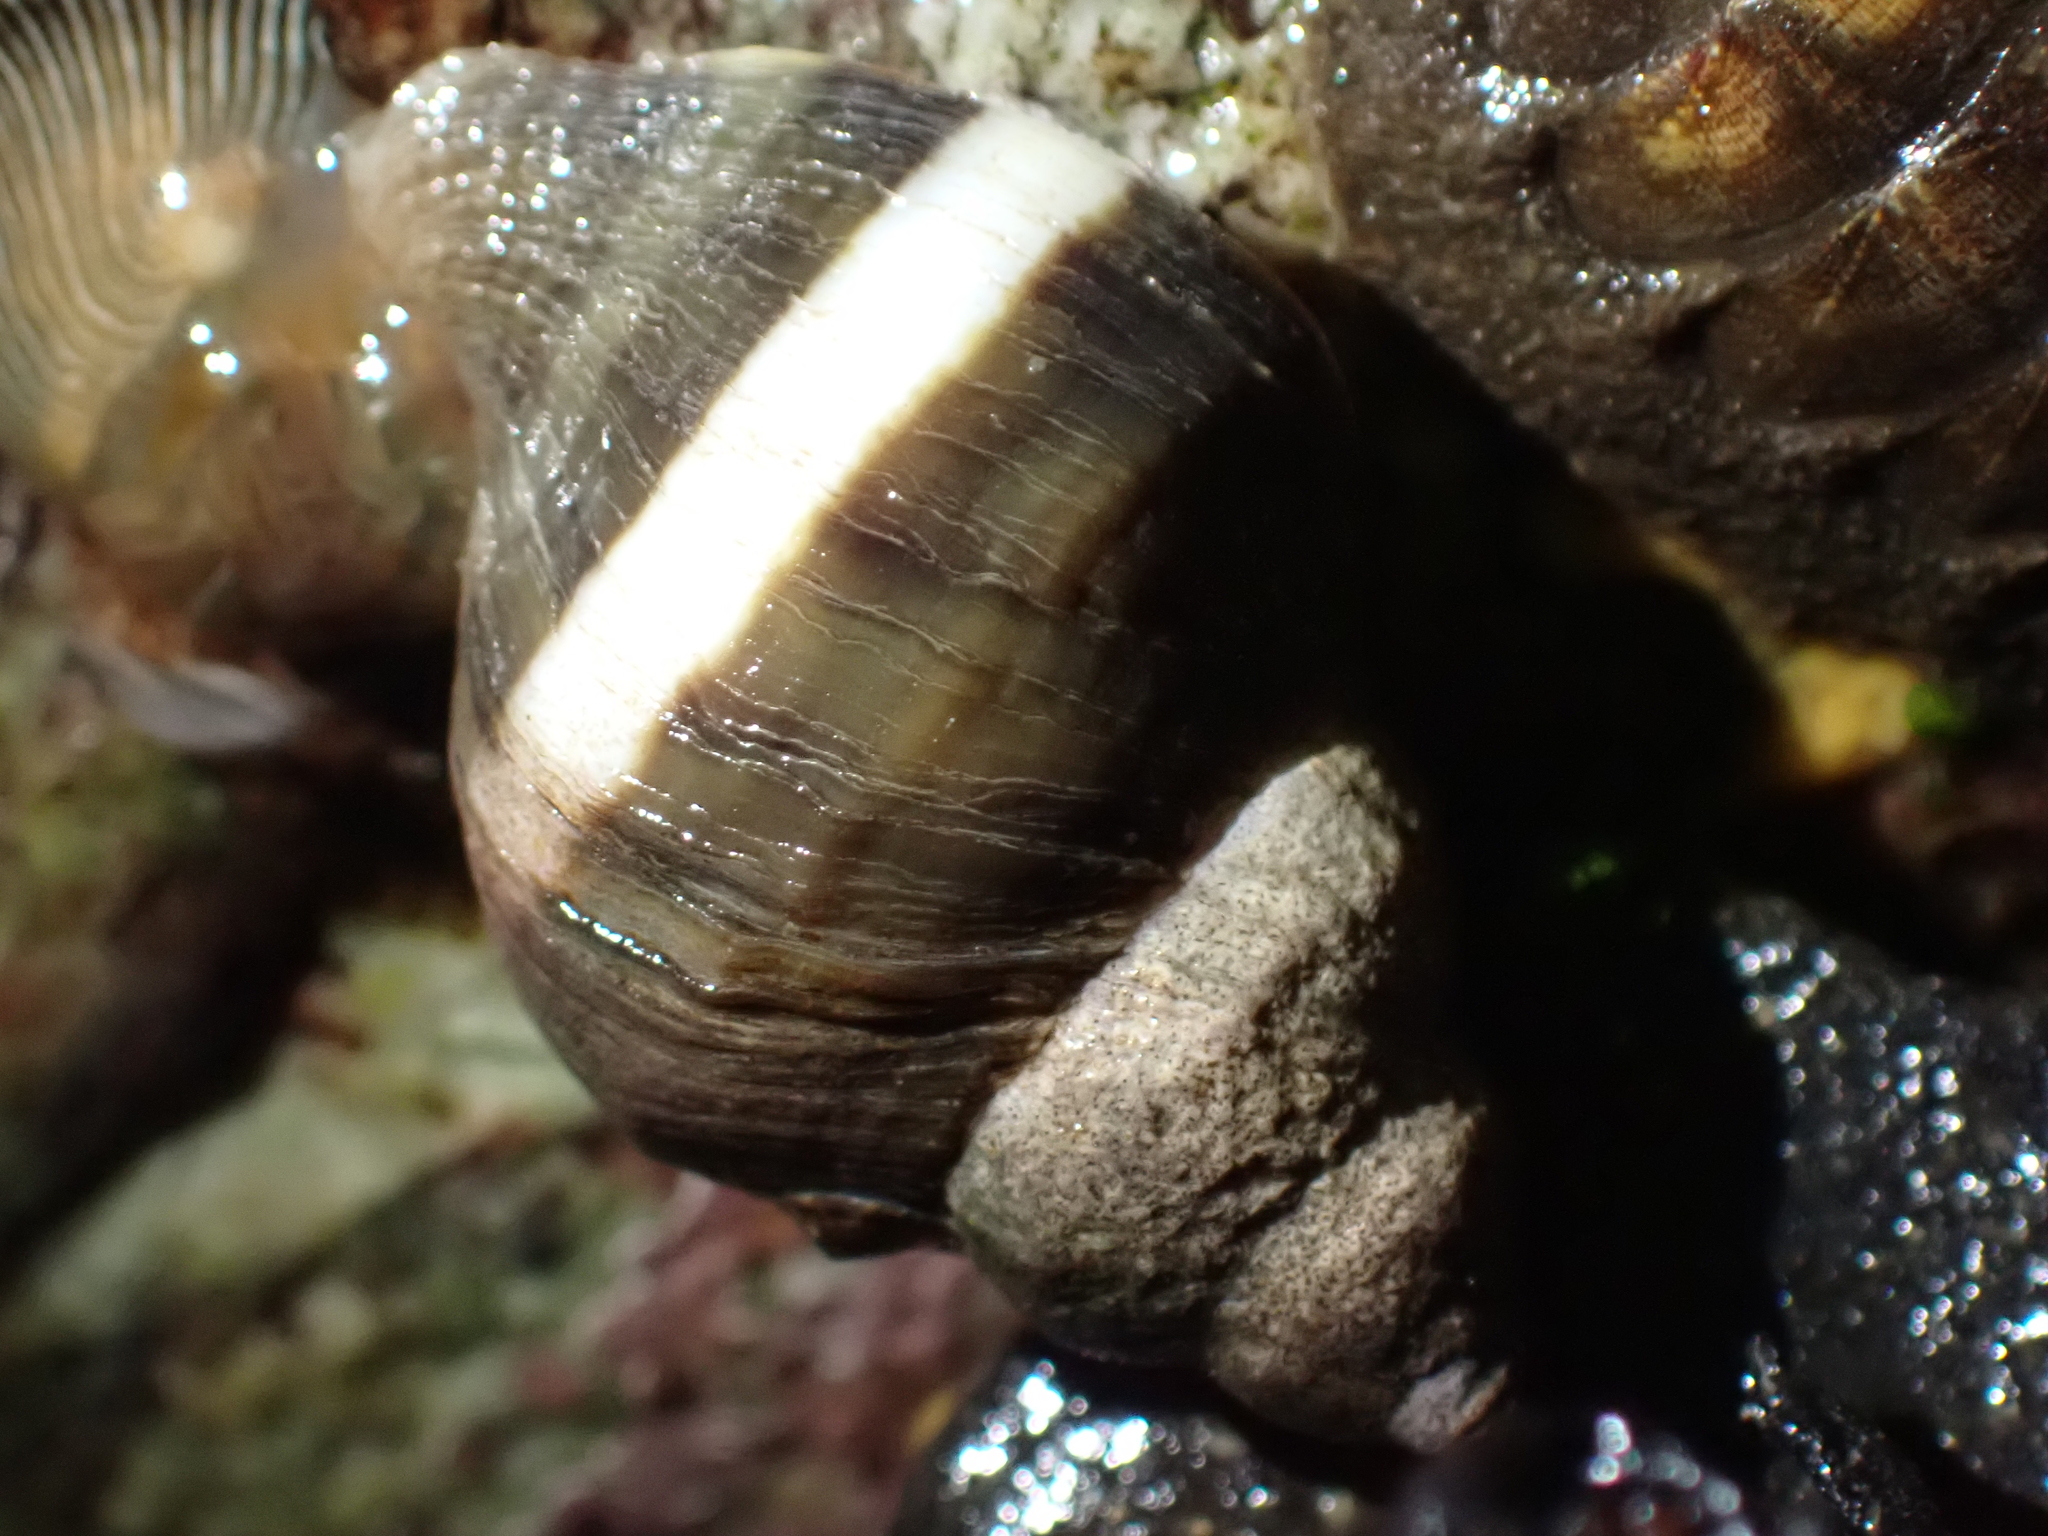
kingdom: Animalia
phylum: Mollusca
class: Gastropoda
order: Littorinimorpha
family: Littorinidae
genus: Littorina
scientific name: Littorina scutulata
